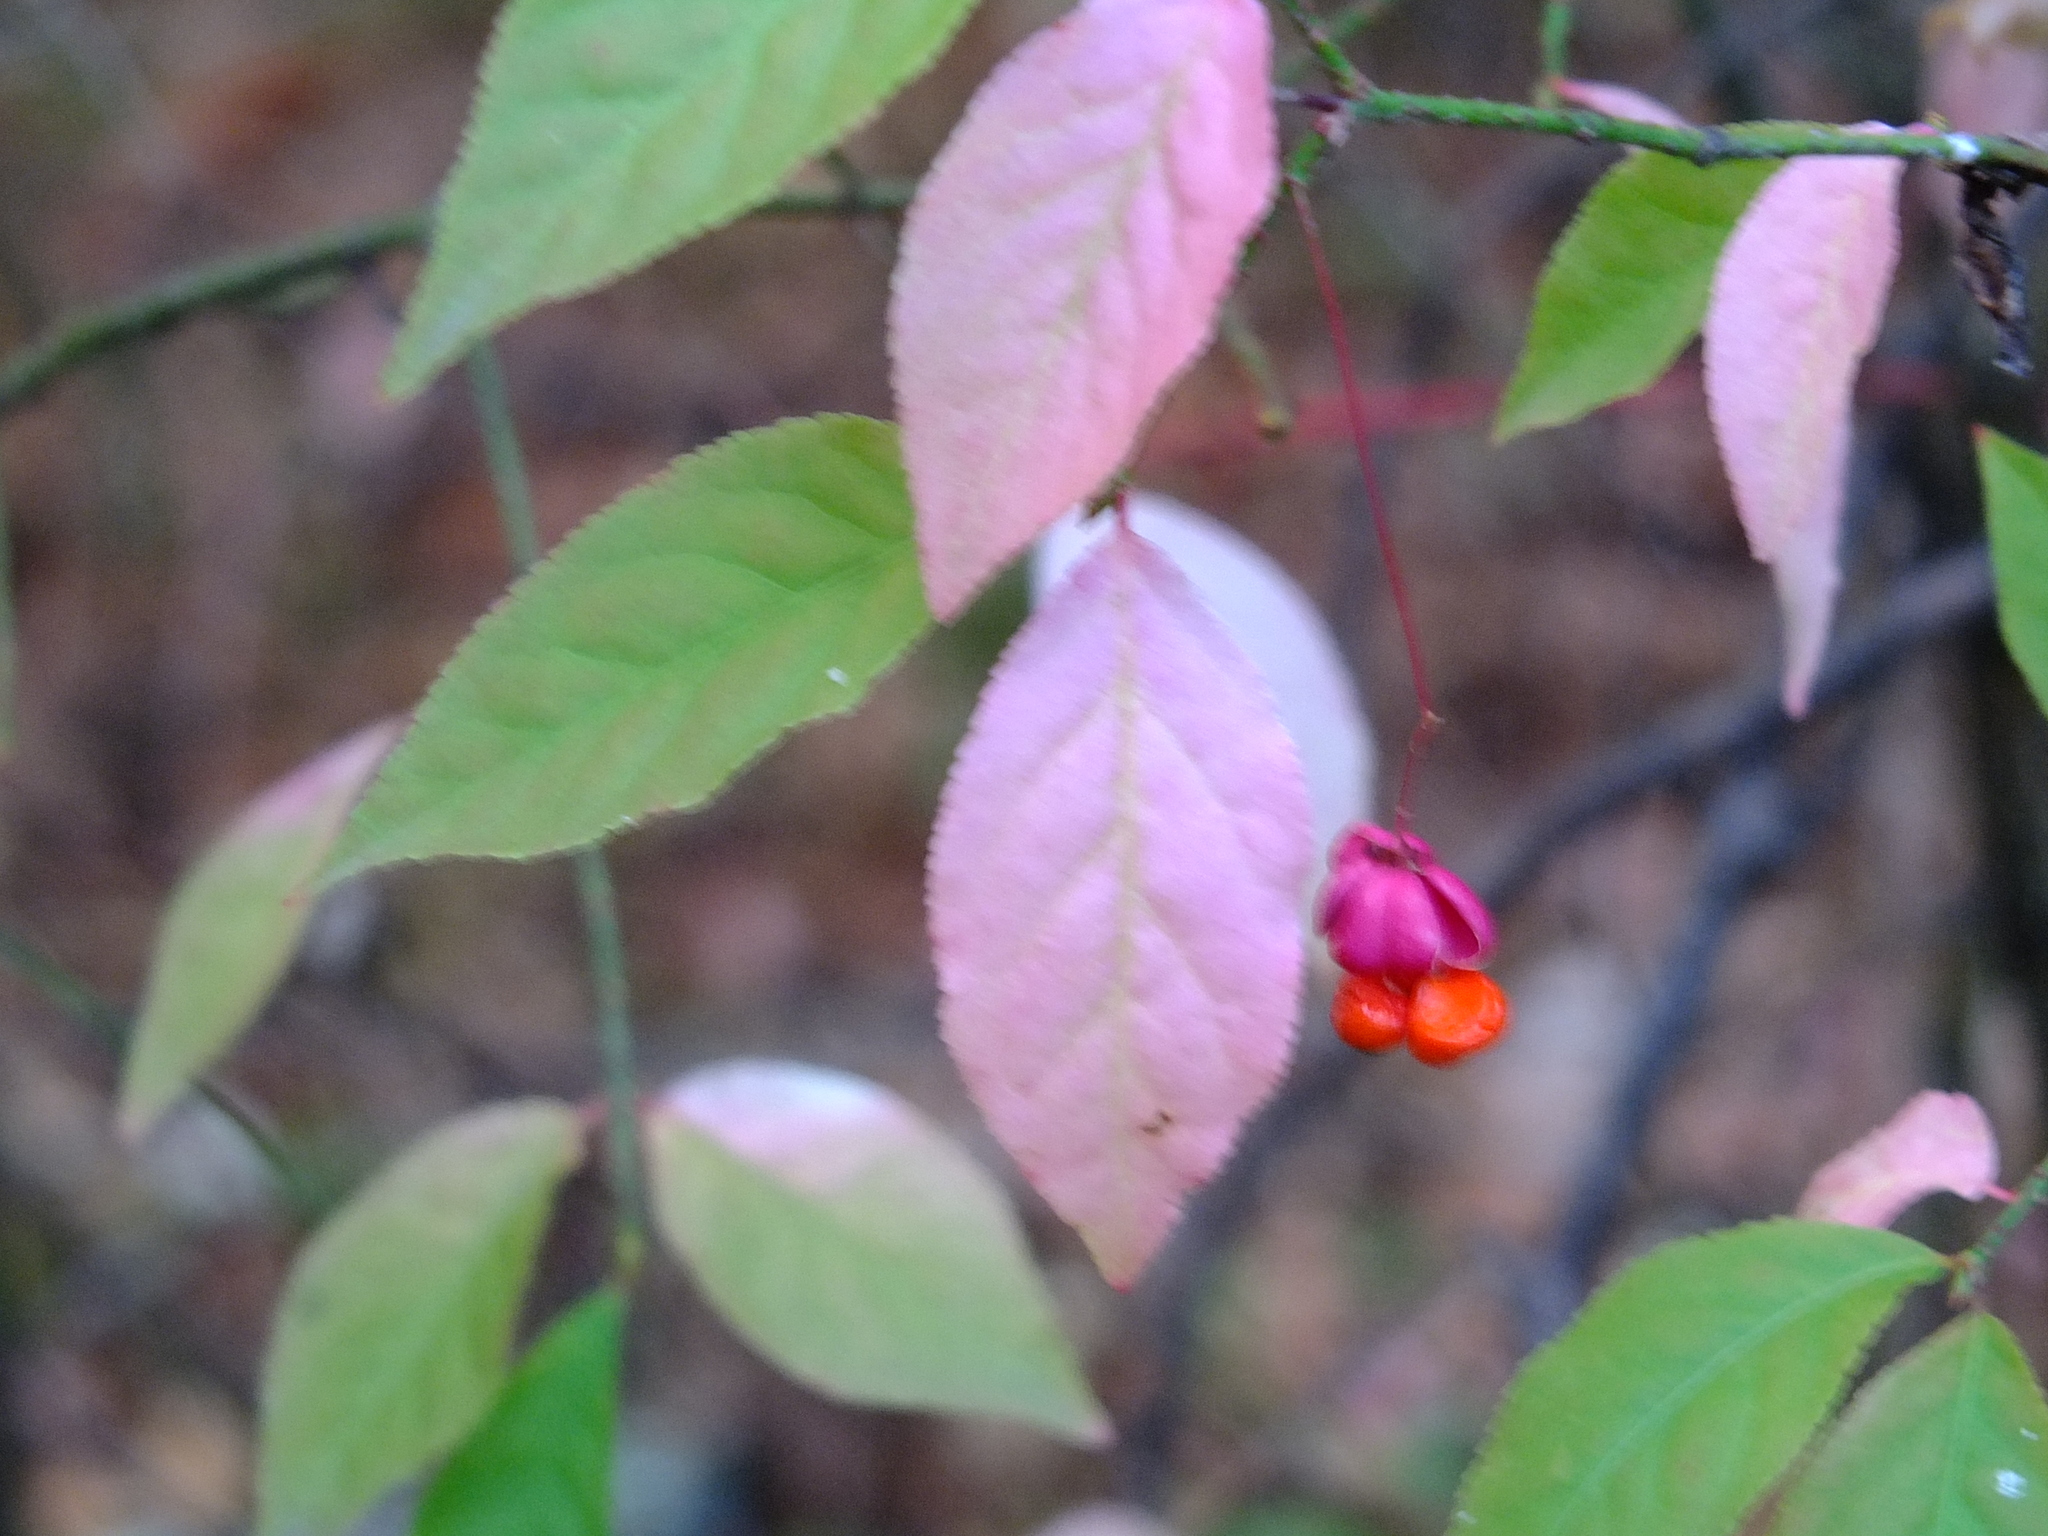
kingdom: Plantae
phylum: Tracheophyta
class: Magnoliopsida
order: Celastrales
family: Celastraceae
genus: Euonymus
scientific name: Euonymus verrucosus
